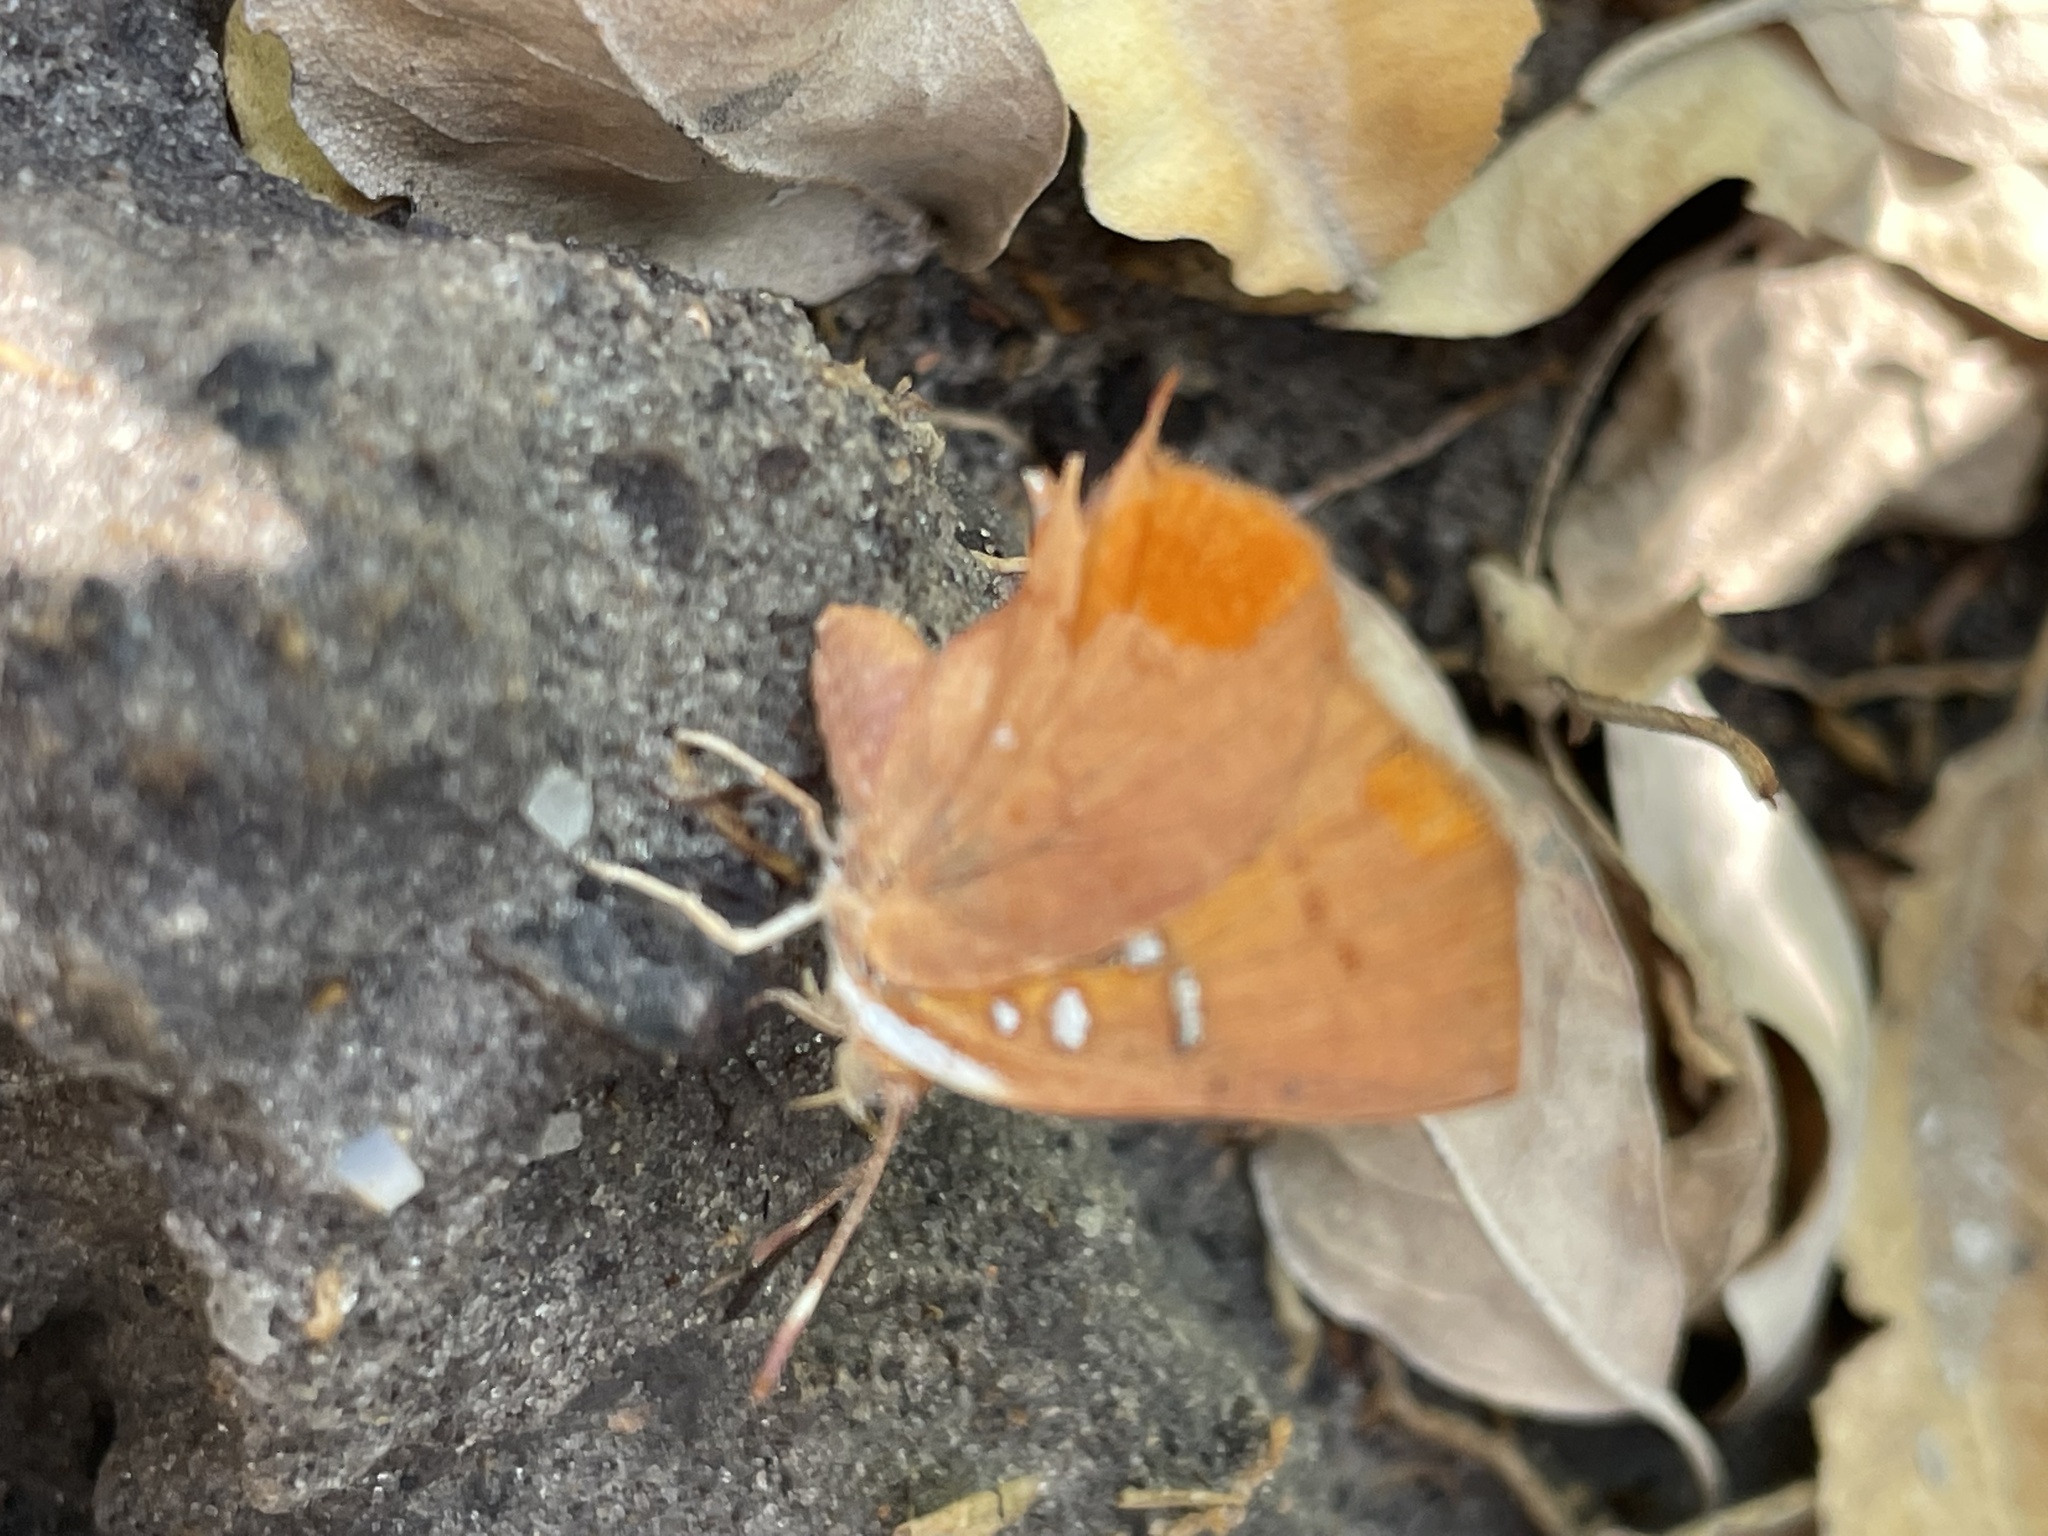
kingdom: Animalia
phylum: Arthropoda
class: Insecta
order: Lepidoptera
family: Lycaenidae
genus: Axiocerses
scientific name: Axiocerses amanga
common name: Bush scarlet
